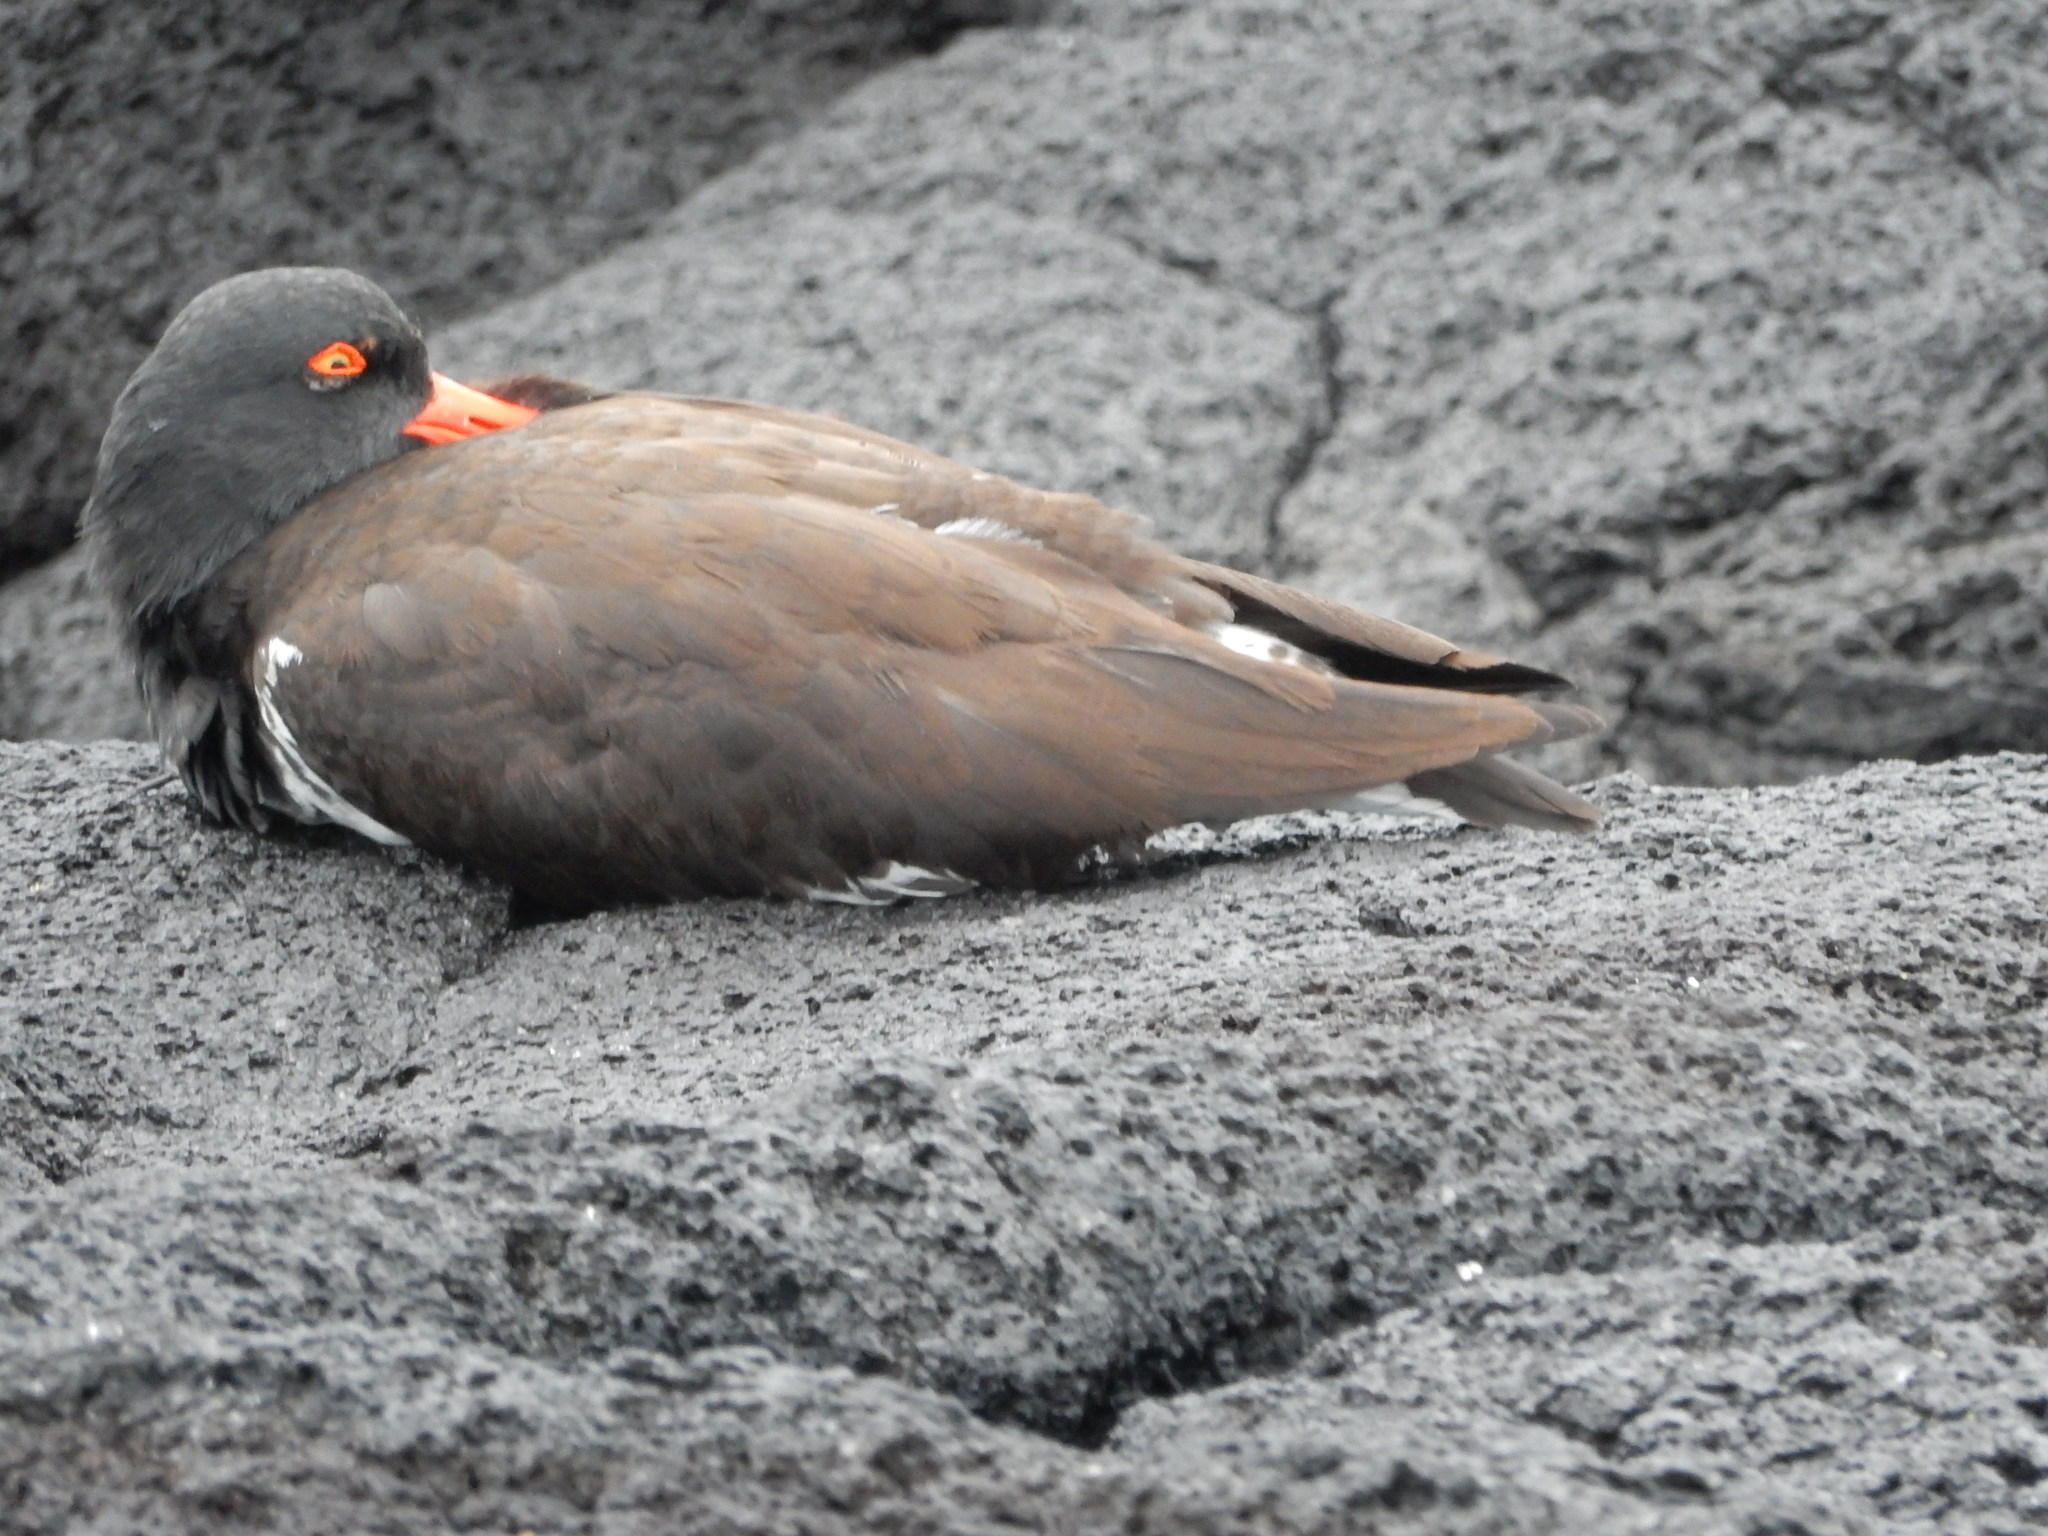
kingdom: Animalia
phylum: Chordata
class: Aves
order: Charadriiformes
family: Haematopodidae
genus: Haematopus
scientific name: Haematopus palliatus
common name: American oystercatcher
